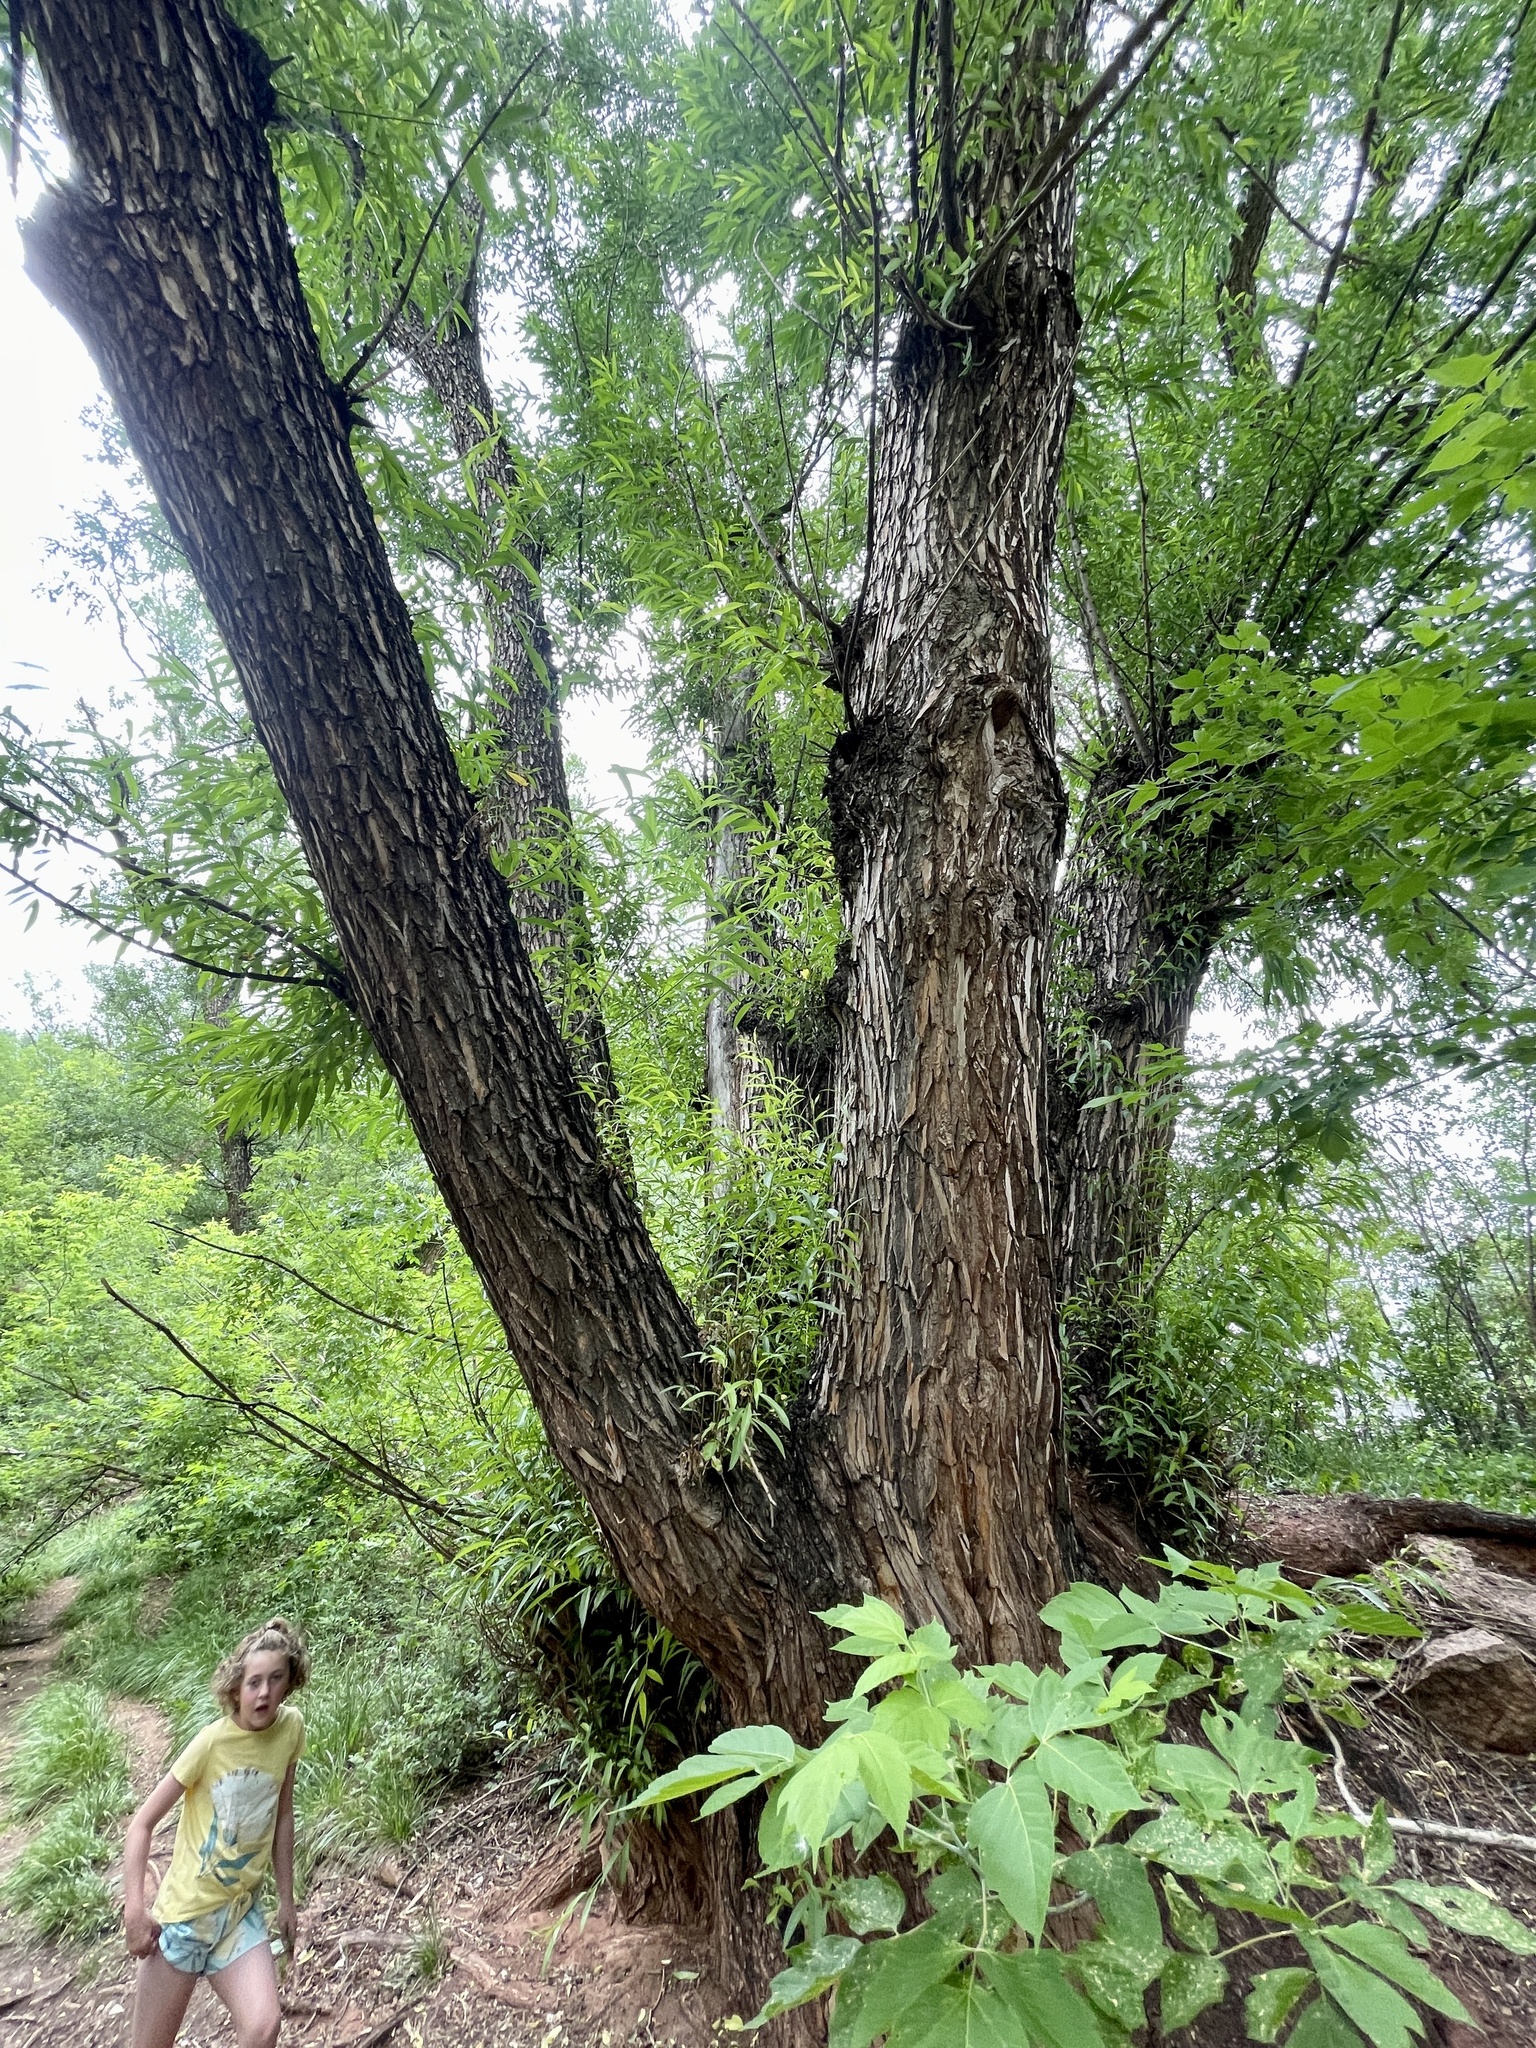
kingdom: Plantae
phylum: Tracheophyta
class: Magnoliopsida
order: Malpighiales
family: Salicaceae
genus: Salix
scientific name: Salix fragilis
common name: Crack willow
